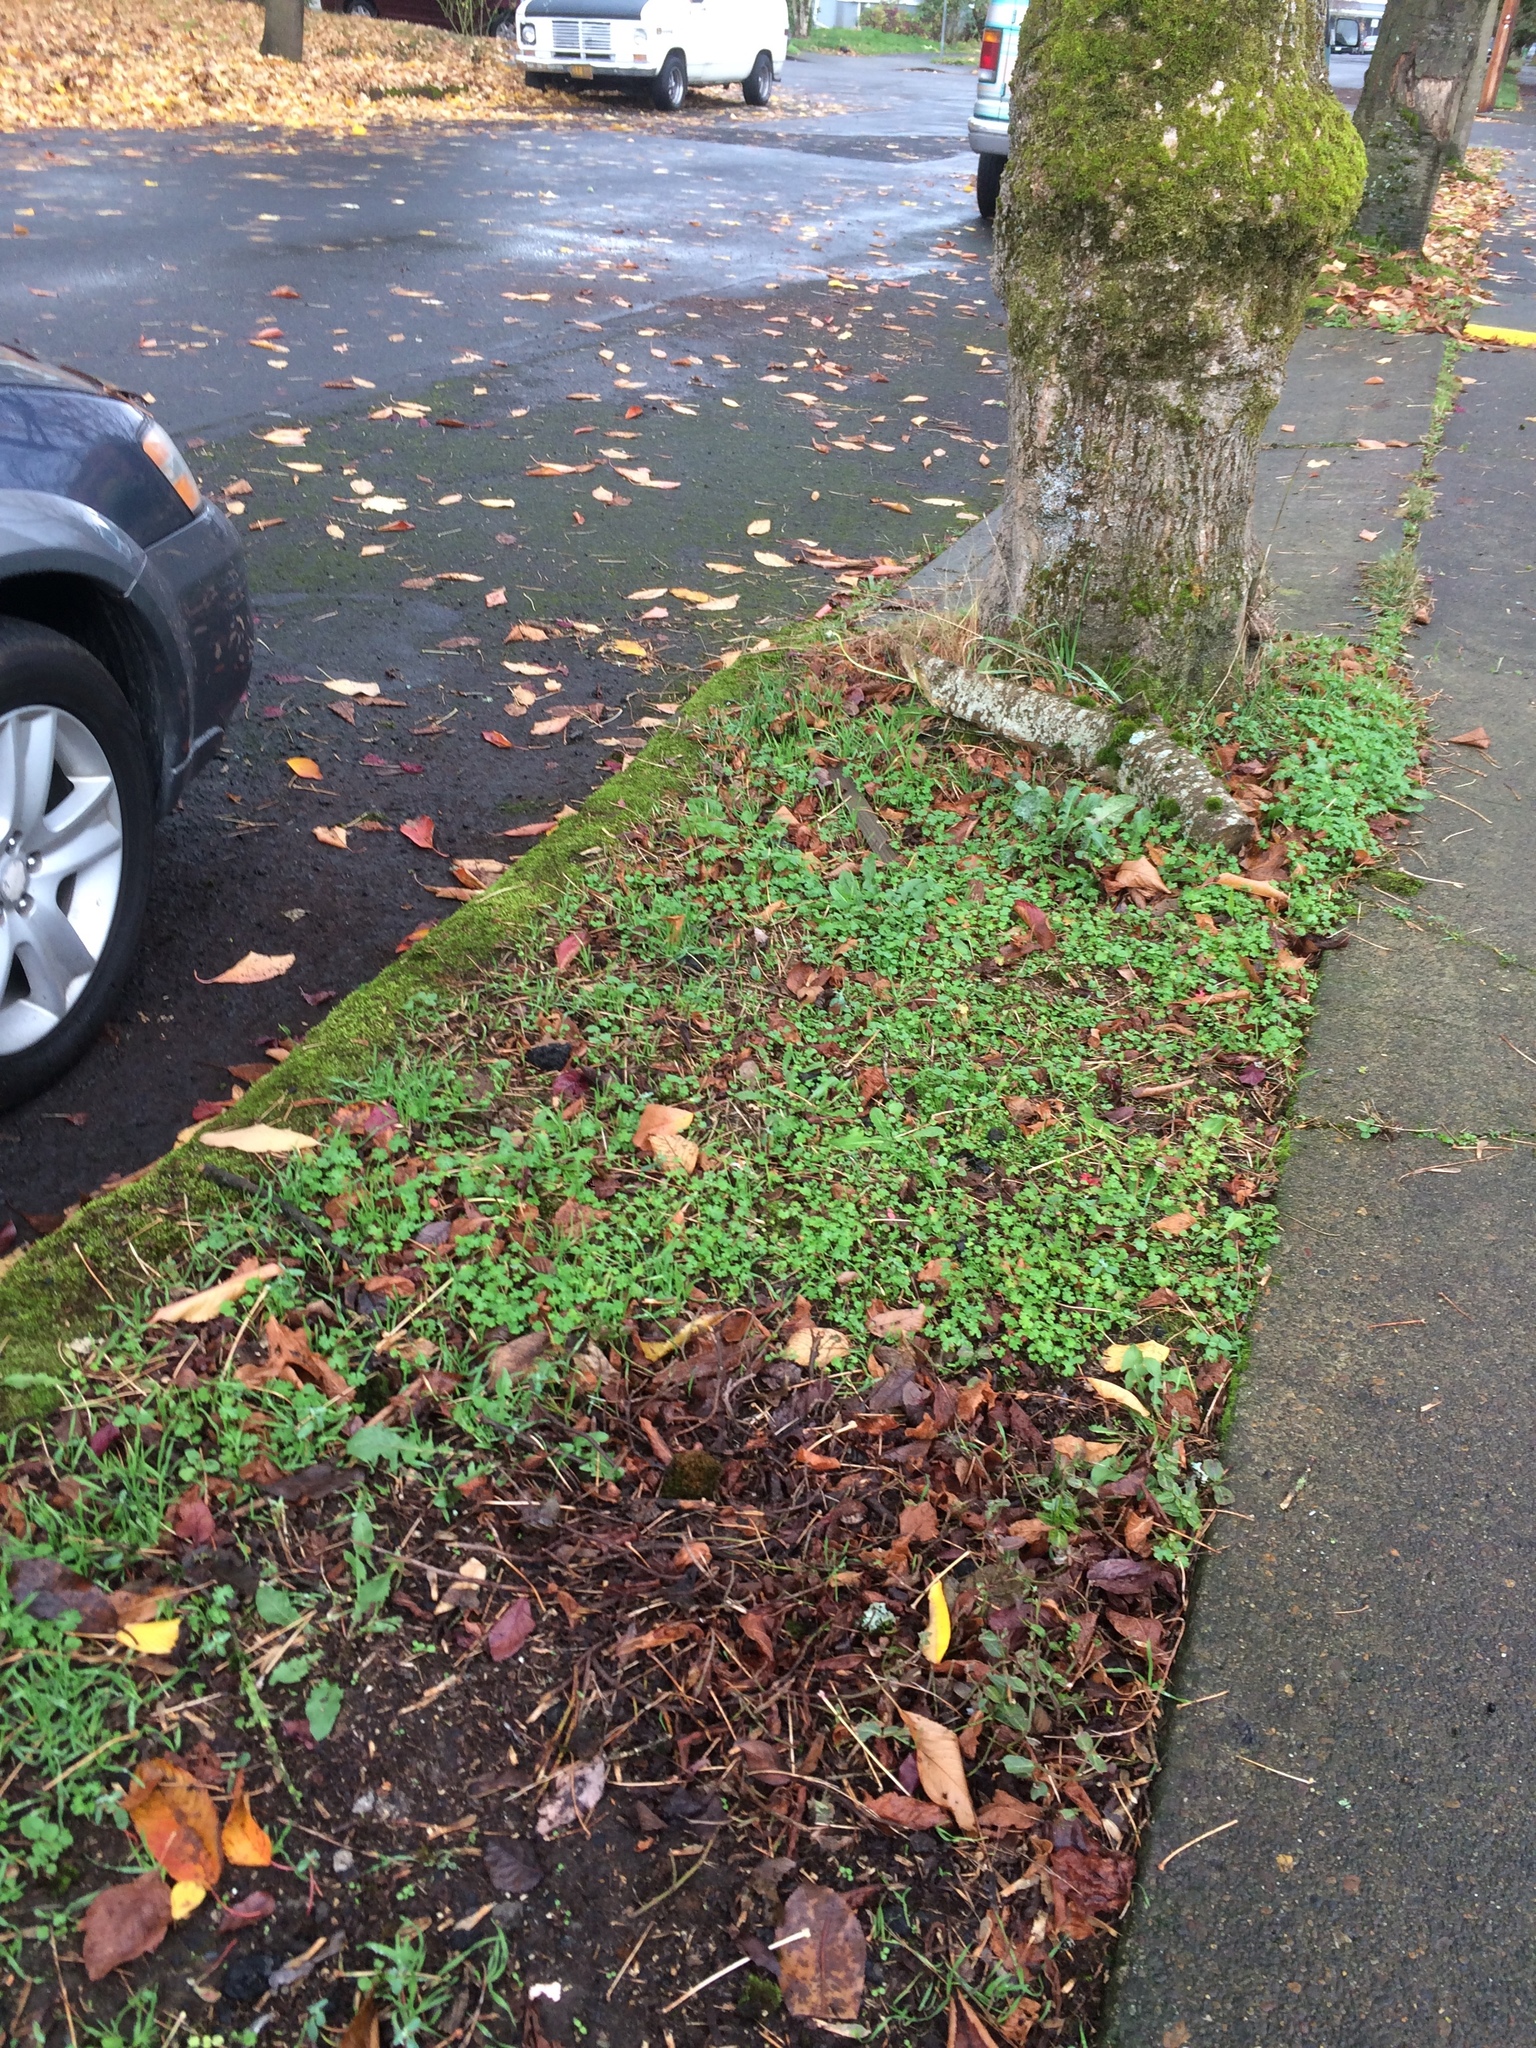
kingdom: Plantae
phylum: Tracheophyta
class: Magnoliopsida
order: Geraniales
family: Geraniaceae
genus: Geranium
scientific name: Geranium lucidum
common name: Shining crane's-bill
